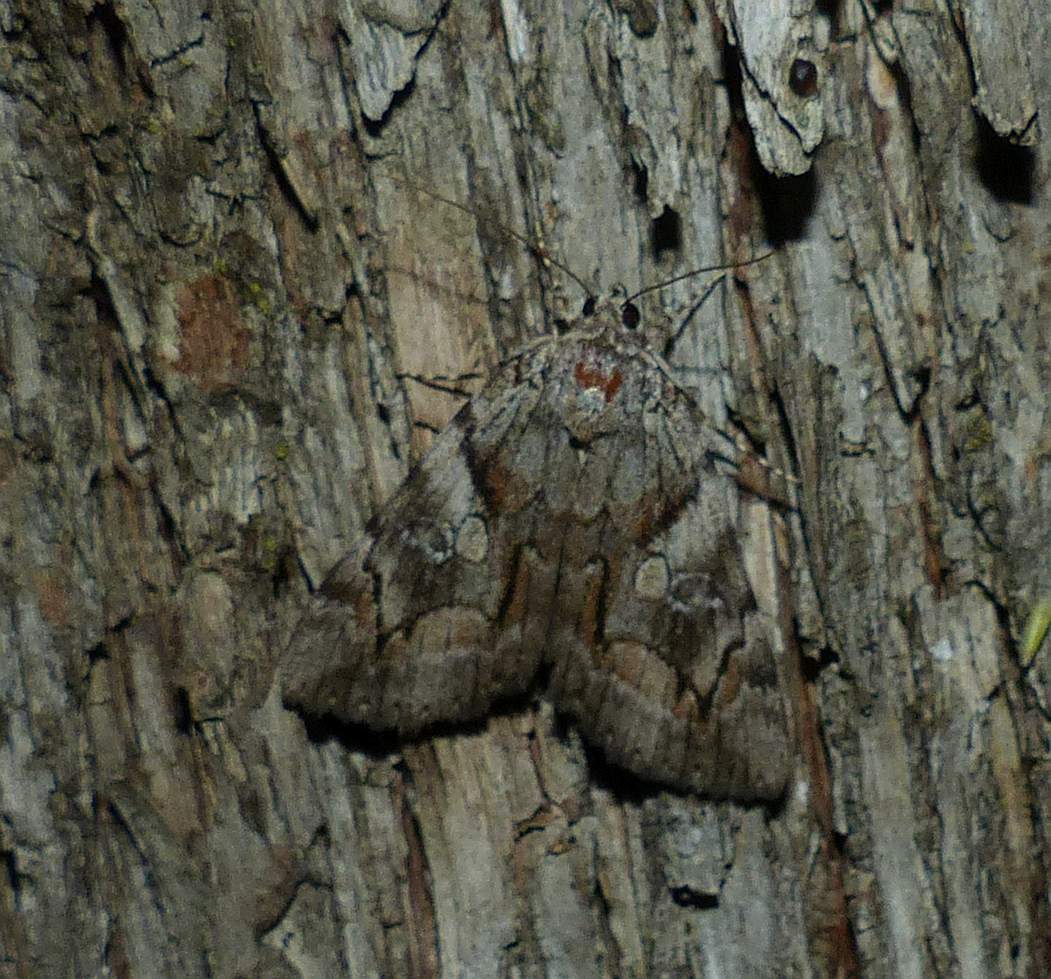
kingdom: Animalia
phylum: Arthropoda
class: Insecta
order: Lepidoptera
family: Erebidae
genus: Catocala
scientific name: Catocala blandula
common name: Charming underwing
